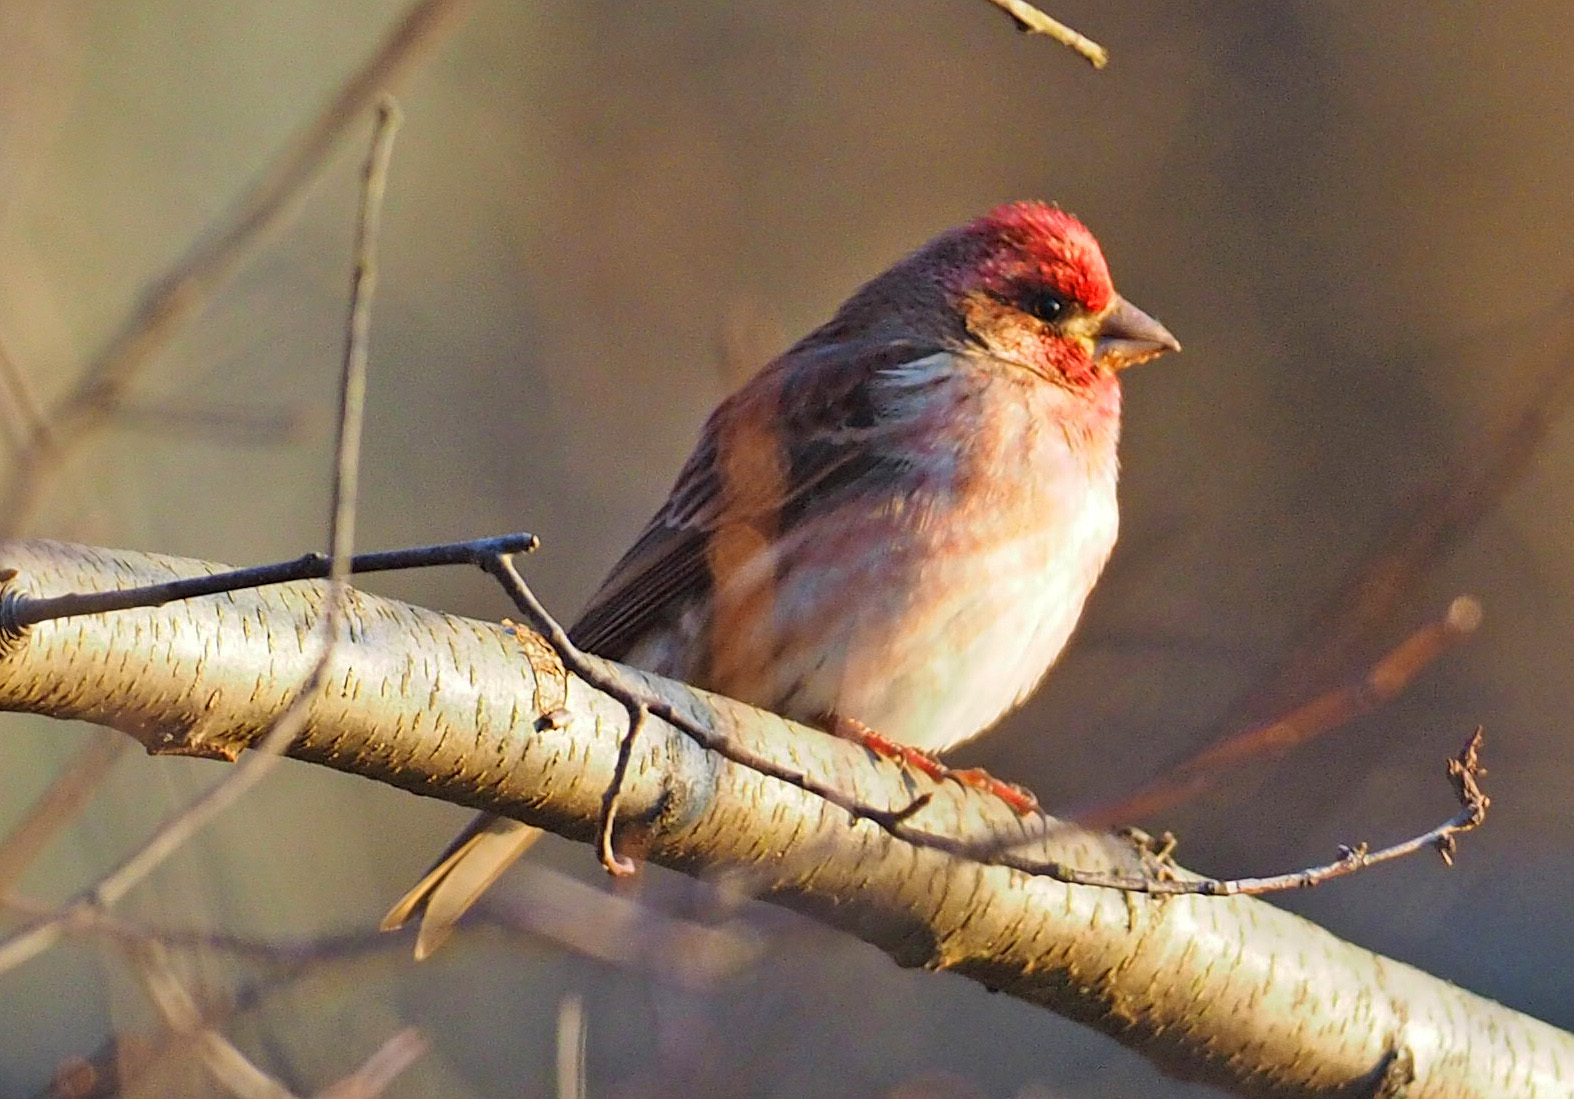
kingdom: Animalia
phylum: Chordata
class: Aves
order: Passeriformes
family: Fringillidae
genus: Haemorhous
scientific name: Haemorhous purpureus
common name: Purple finch
